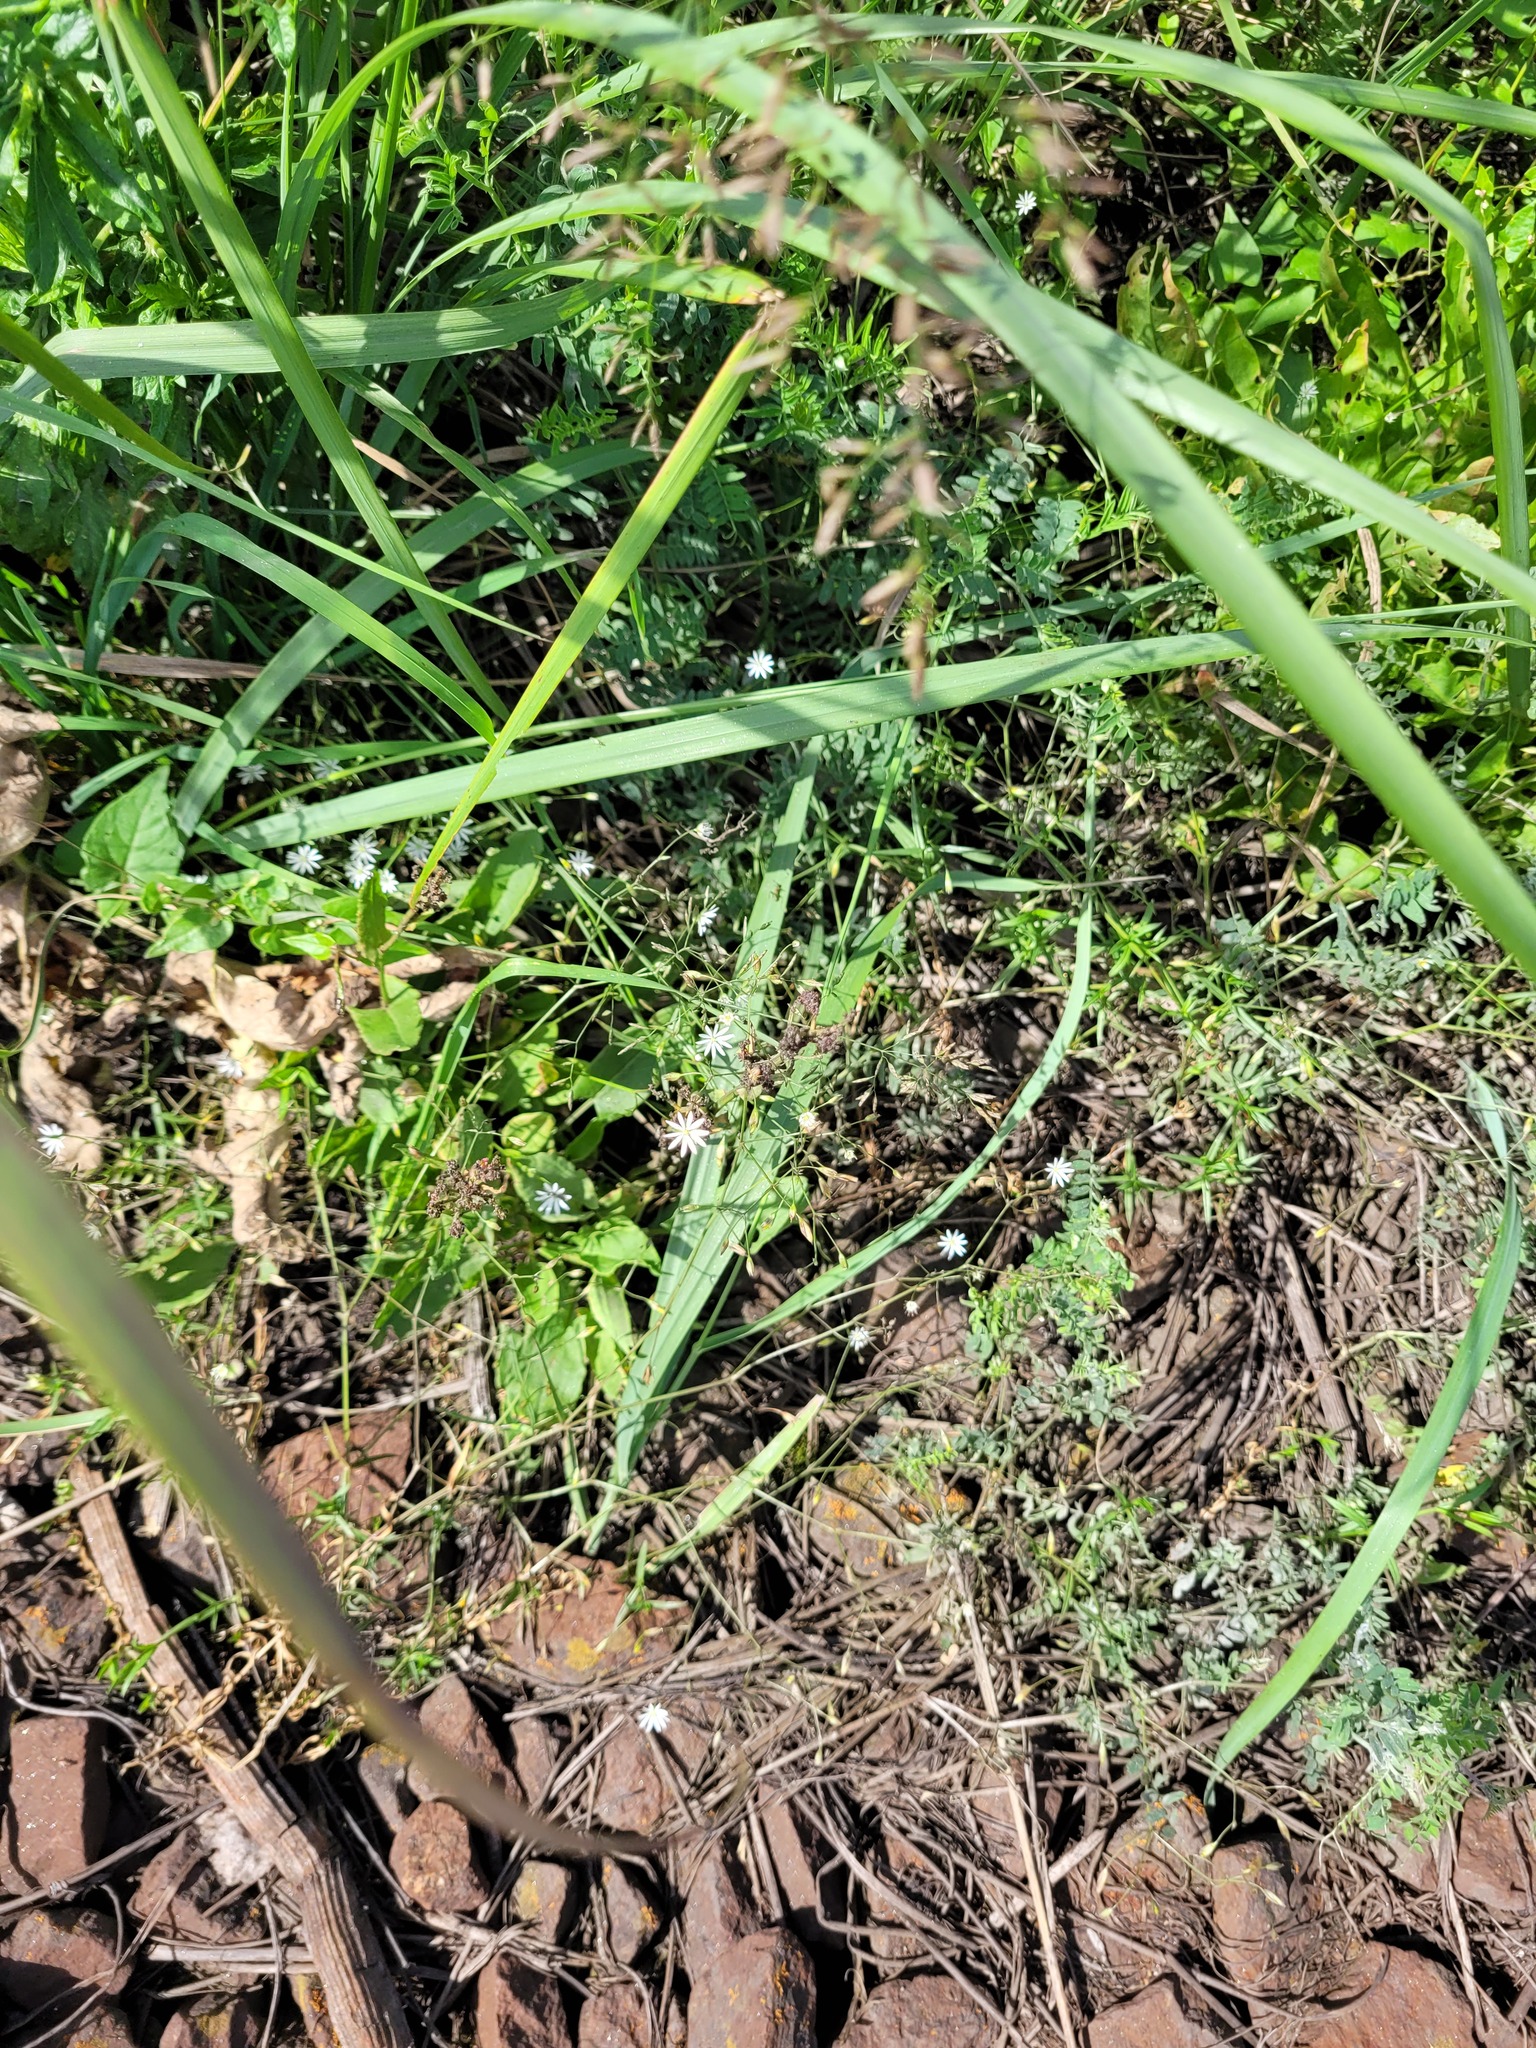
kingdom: Plantae
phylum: Tracheophyta
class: Magnoliopsida
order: Caryophyllales
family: Caryophyllaceae
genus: Stellaria
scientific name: Stellaria graminea
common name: Grass-like starwort
